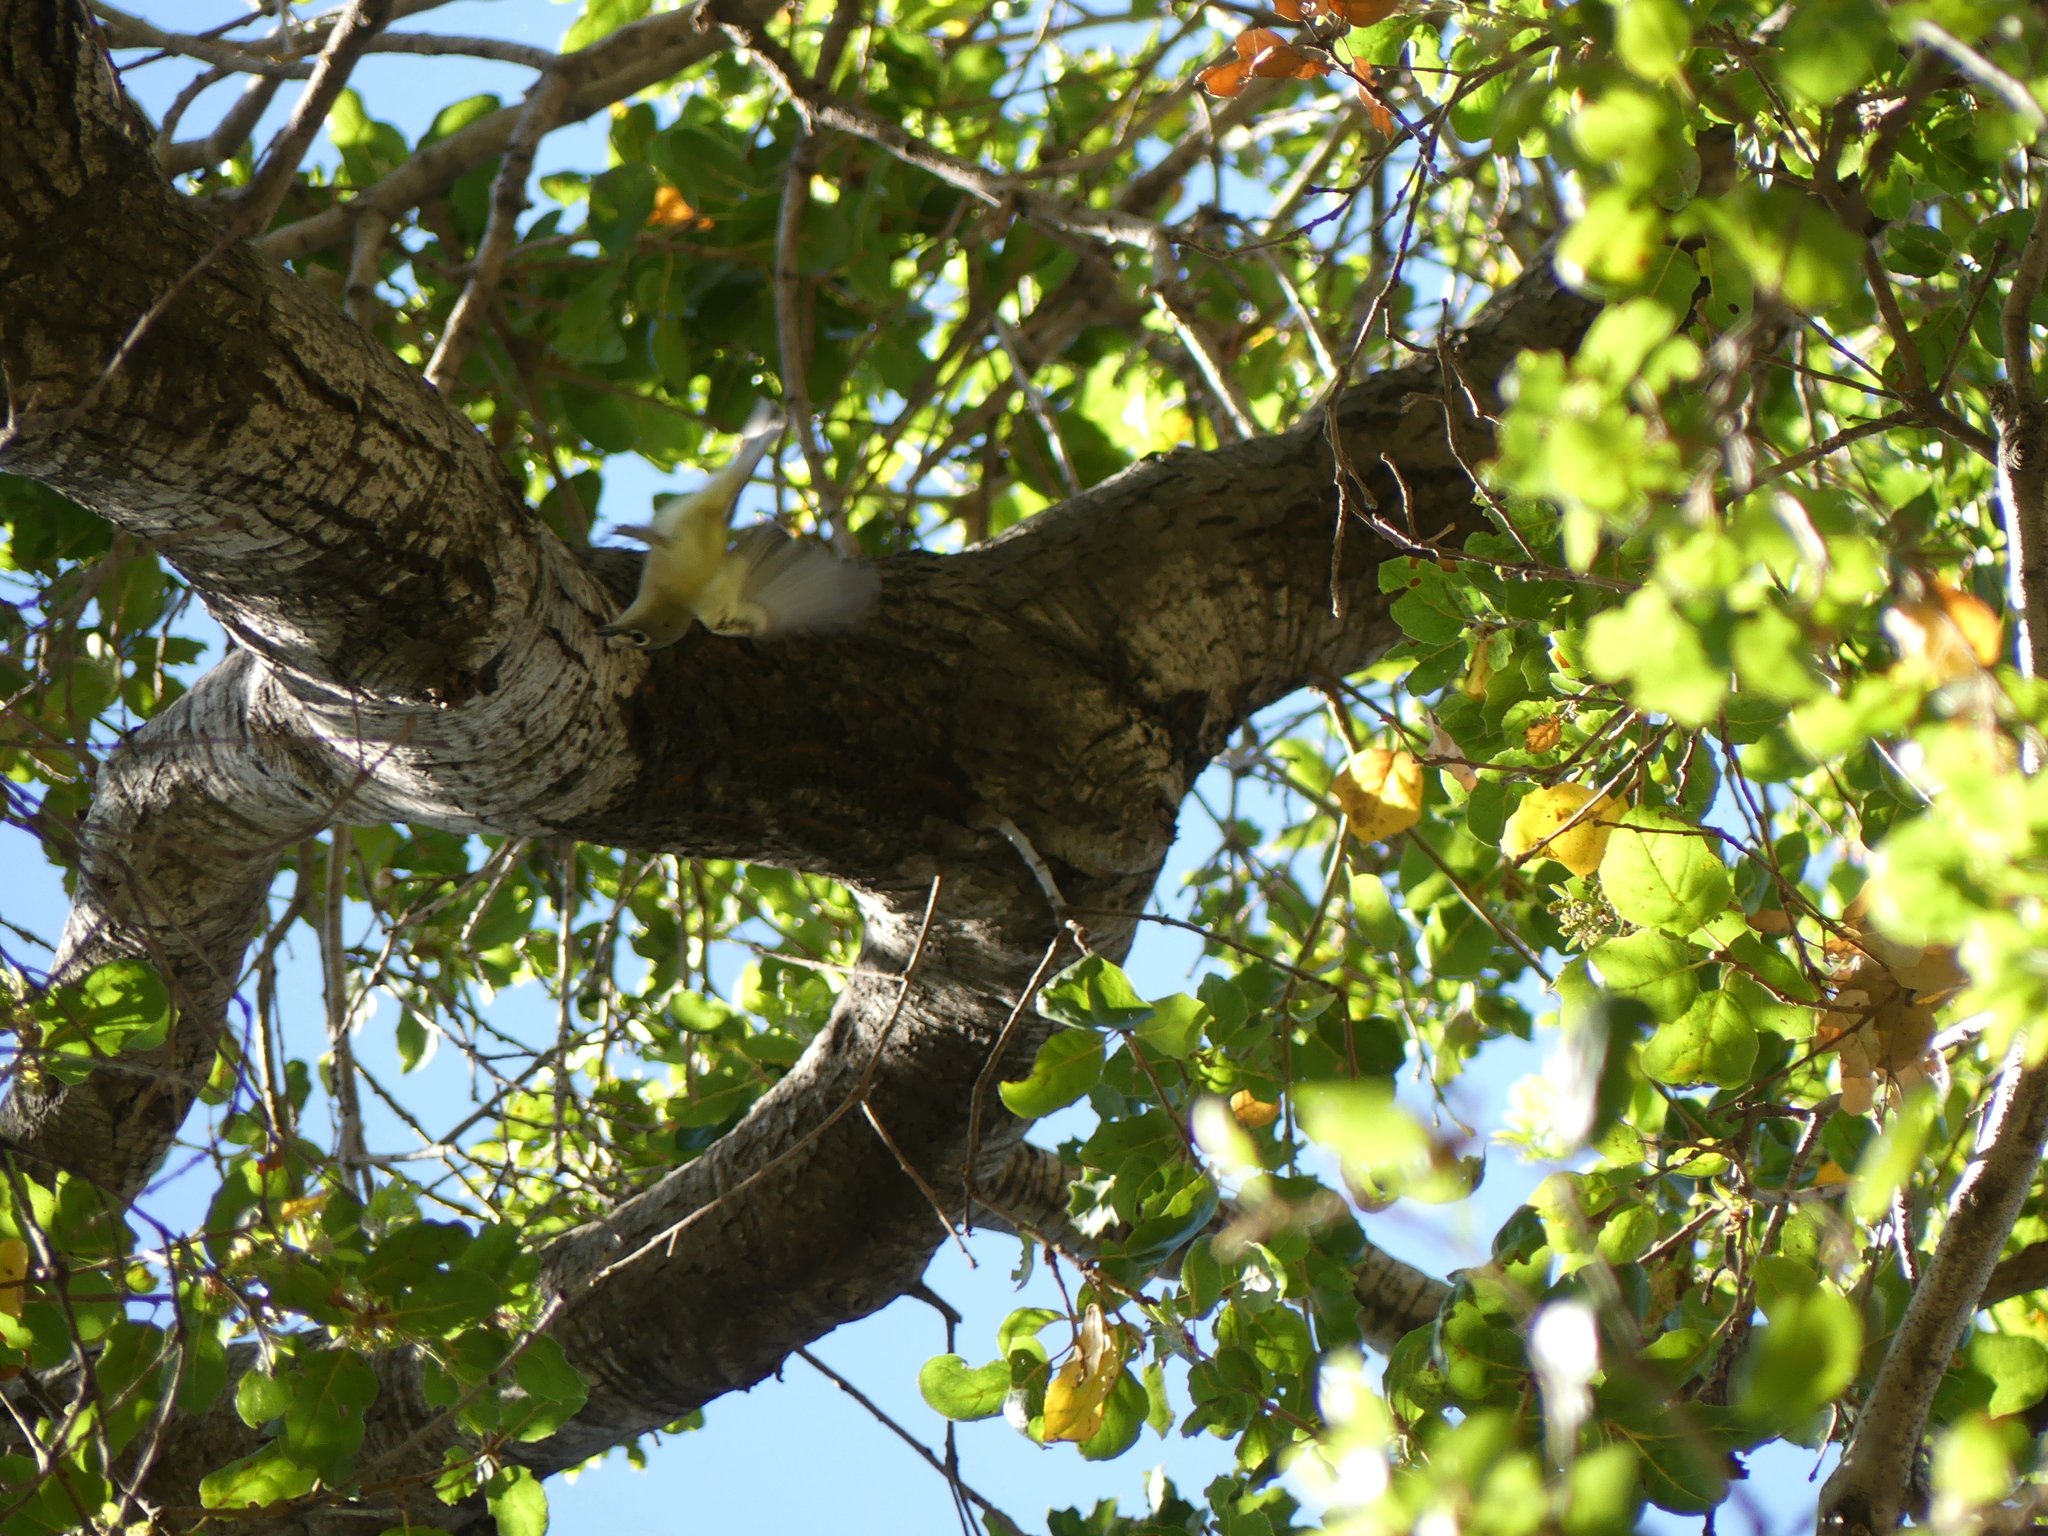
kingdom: Animalia
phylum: Chordata
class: Aves
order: Passeriformes
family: Vireonidae
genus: Vireo
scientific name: Vireo cassinii
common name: Cassin's vireo
